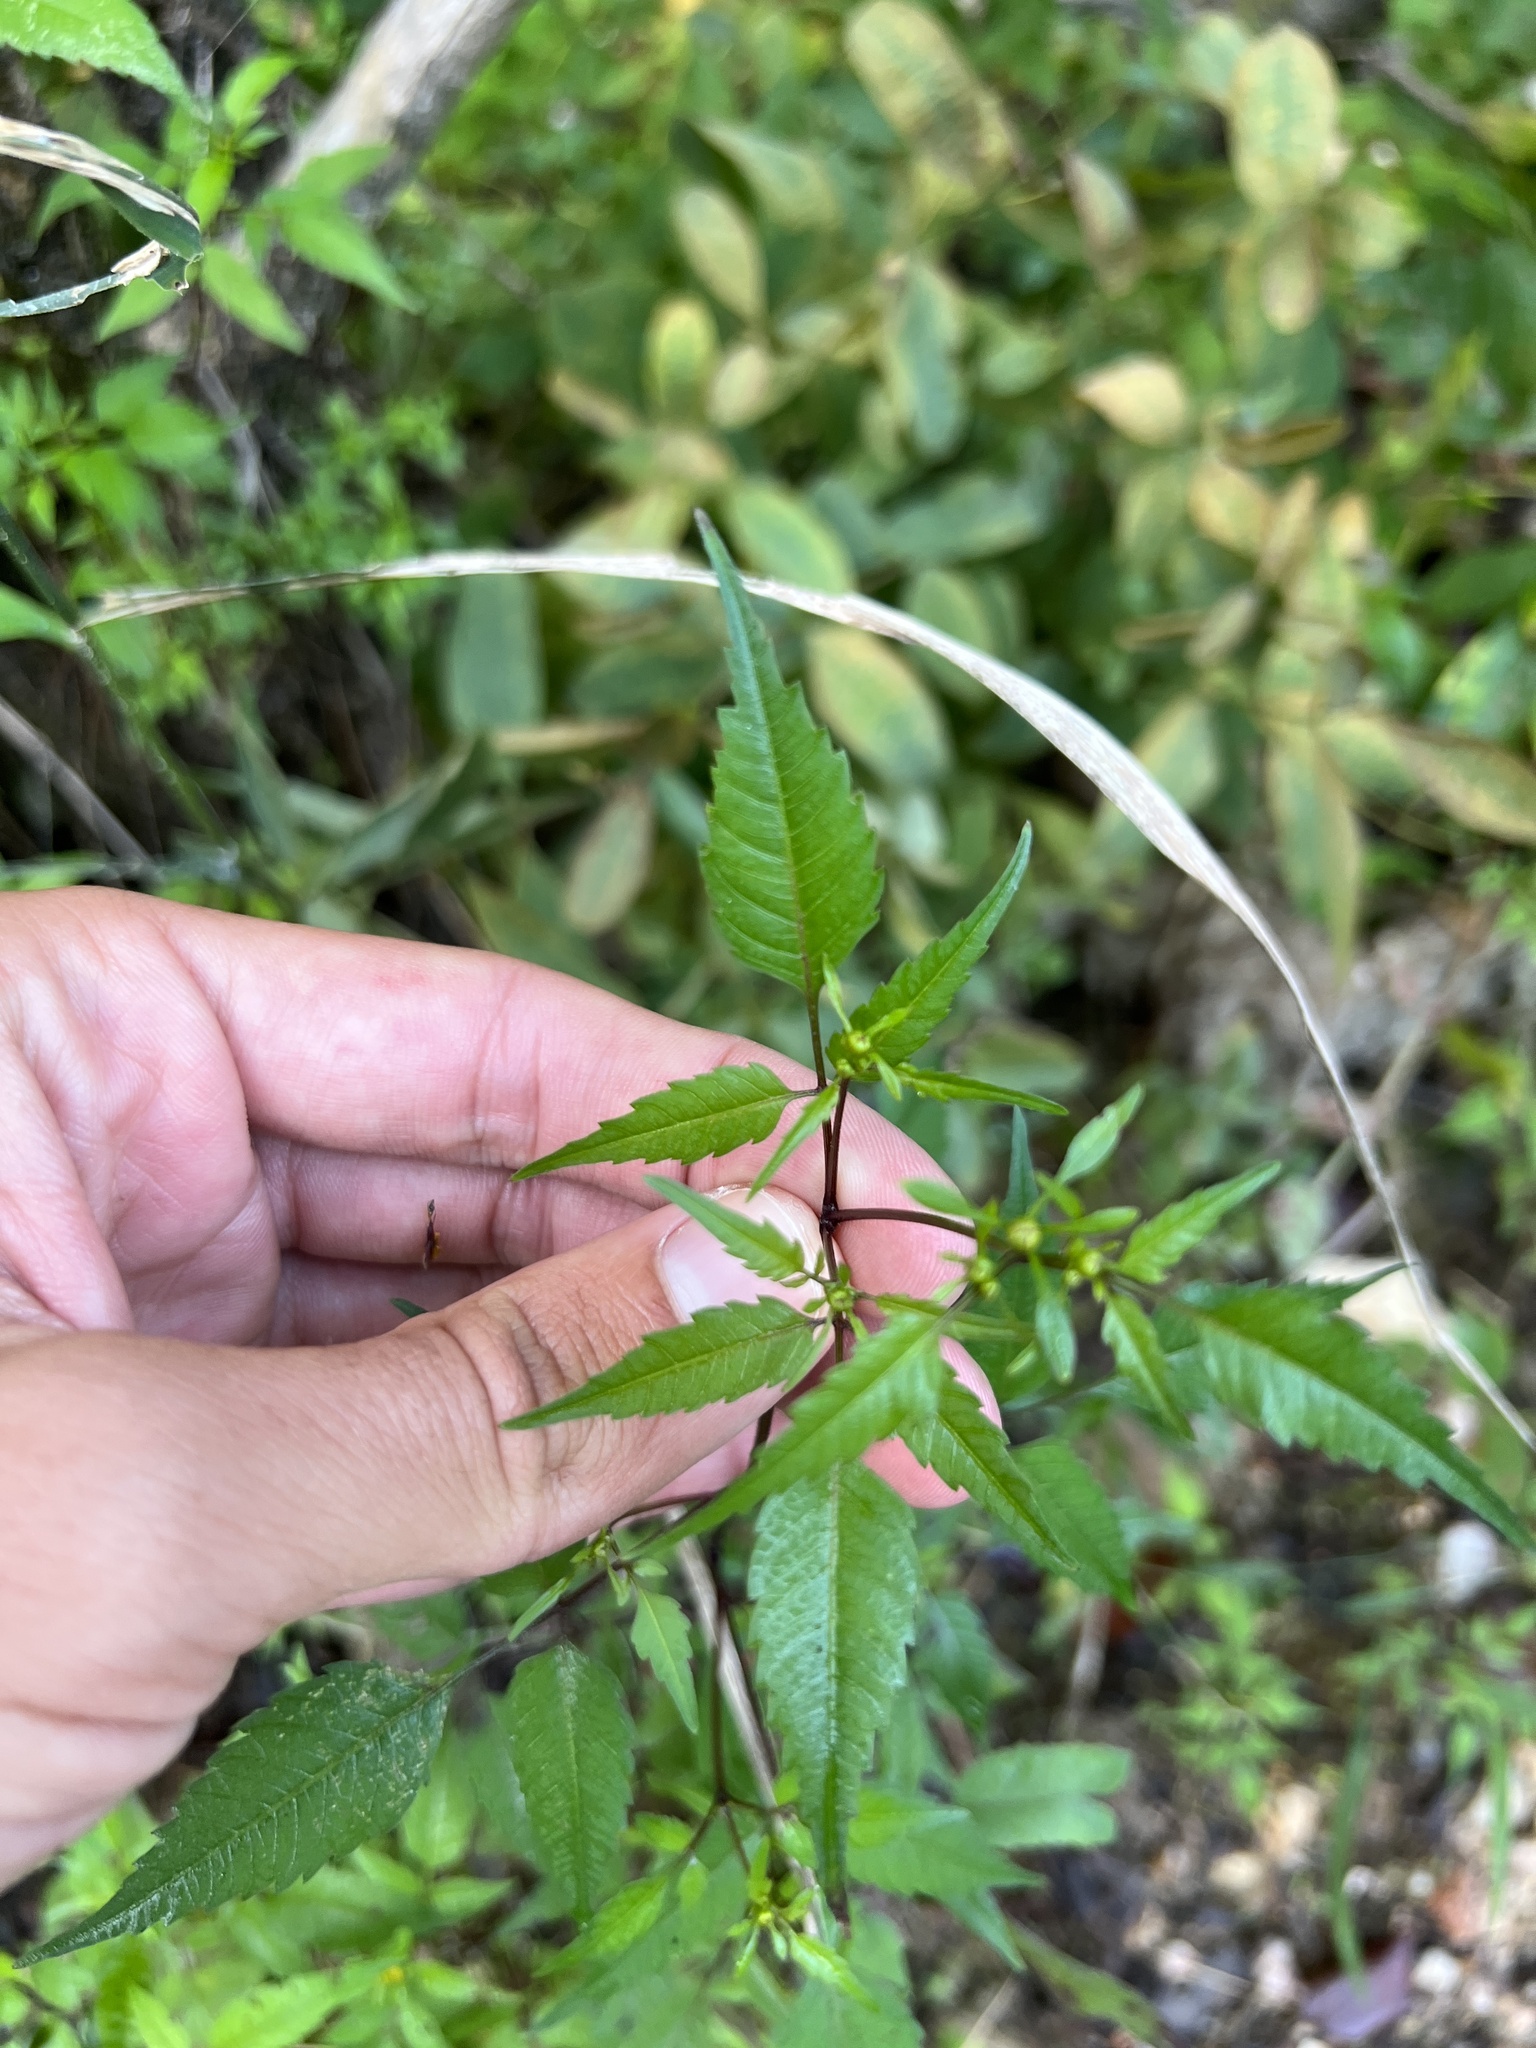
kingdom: Plantae
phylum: Tracheophyta
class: Magnoliopsida
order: Asterales
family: Asteraceae
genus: Bidens
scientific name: Bidens discoidea
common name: Discoide beggarticks
